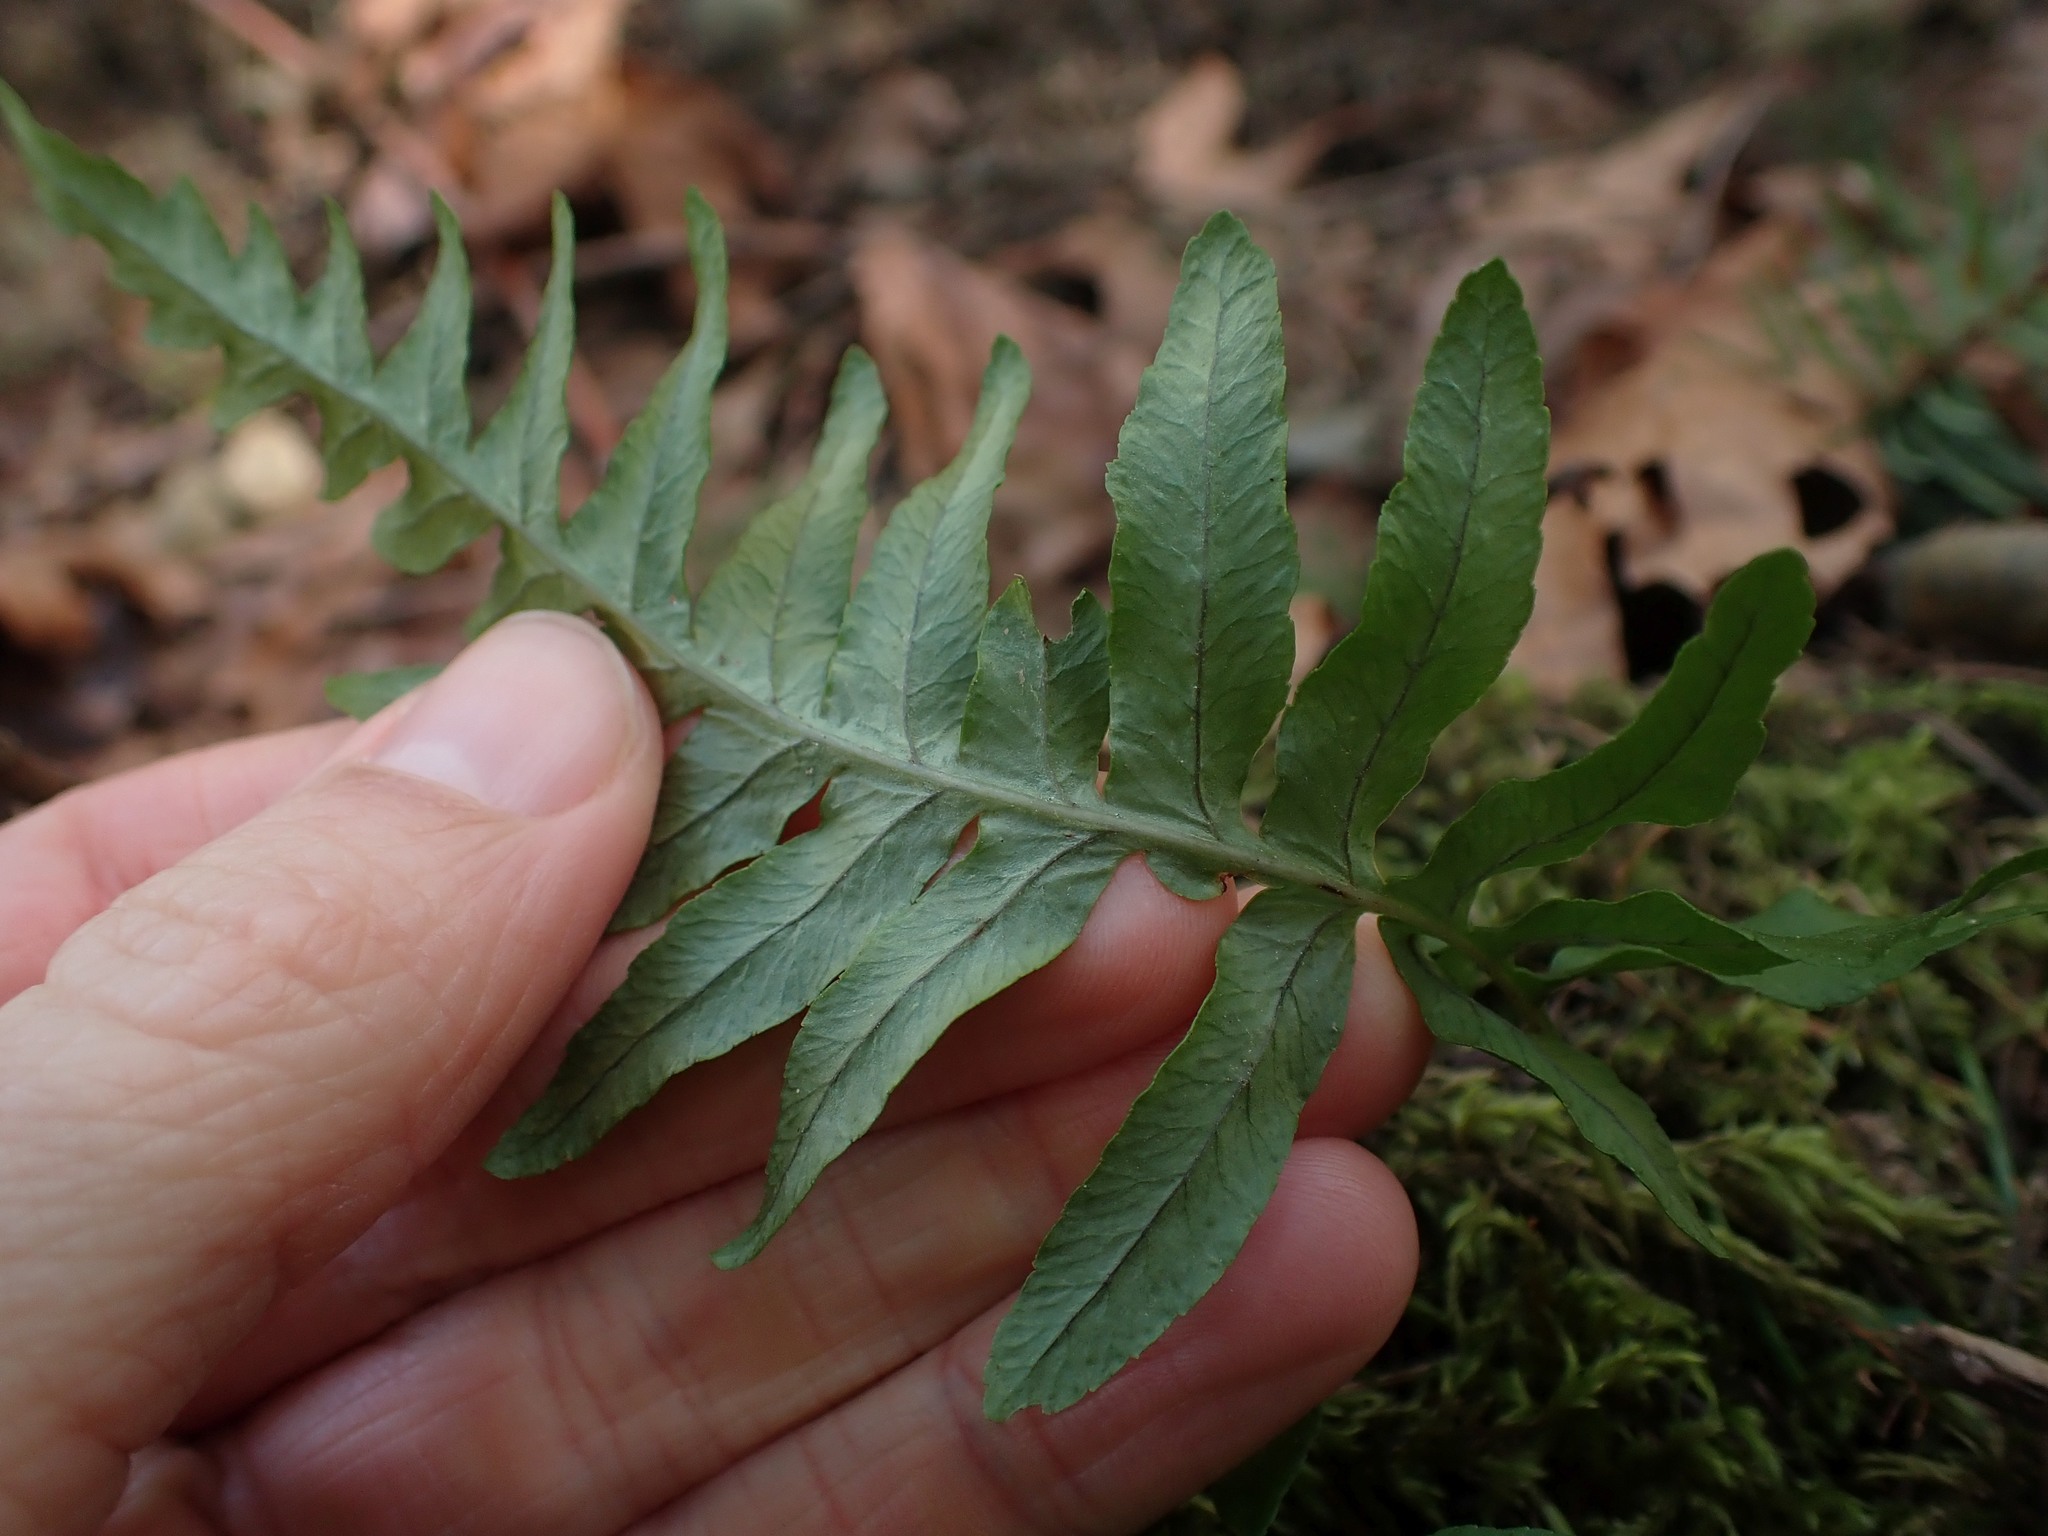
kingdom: Plantae
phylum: Tracheophyta
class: Polypodiopsida
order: Polypodiales
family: Polypodiaceae
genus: Polypodium
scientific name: Polypodium glycyrrhiza
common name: Licorice fern
